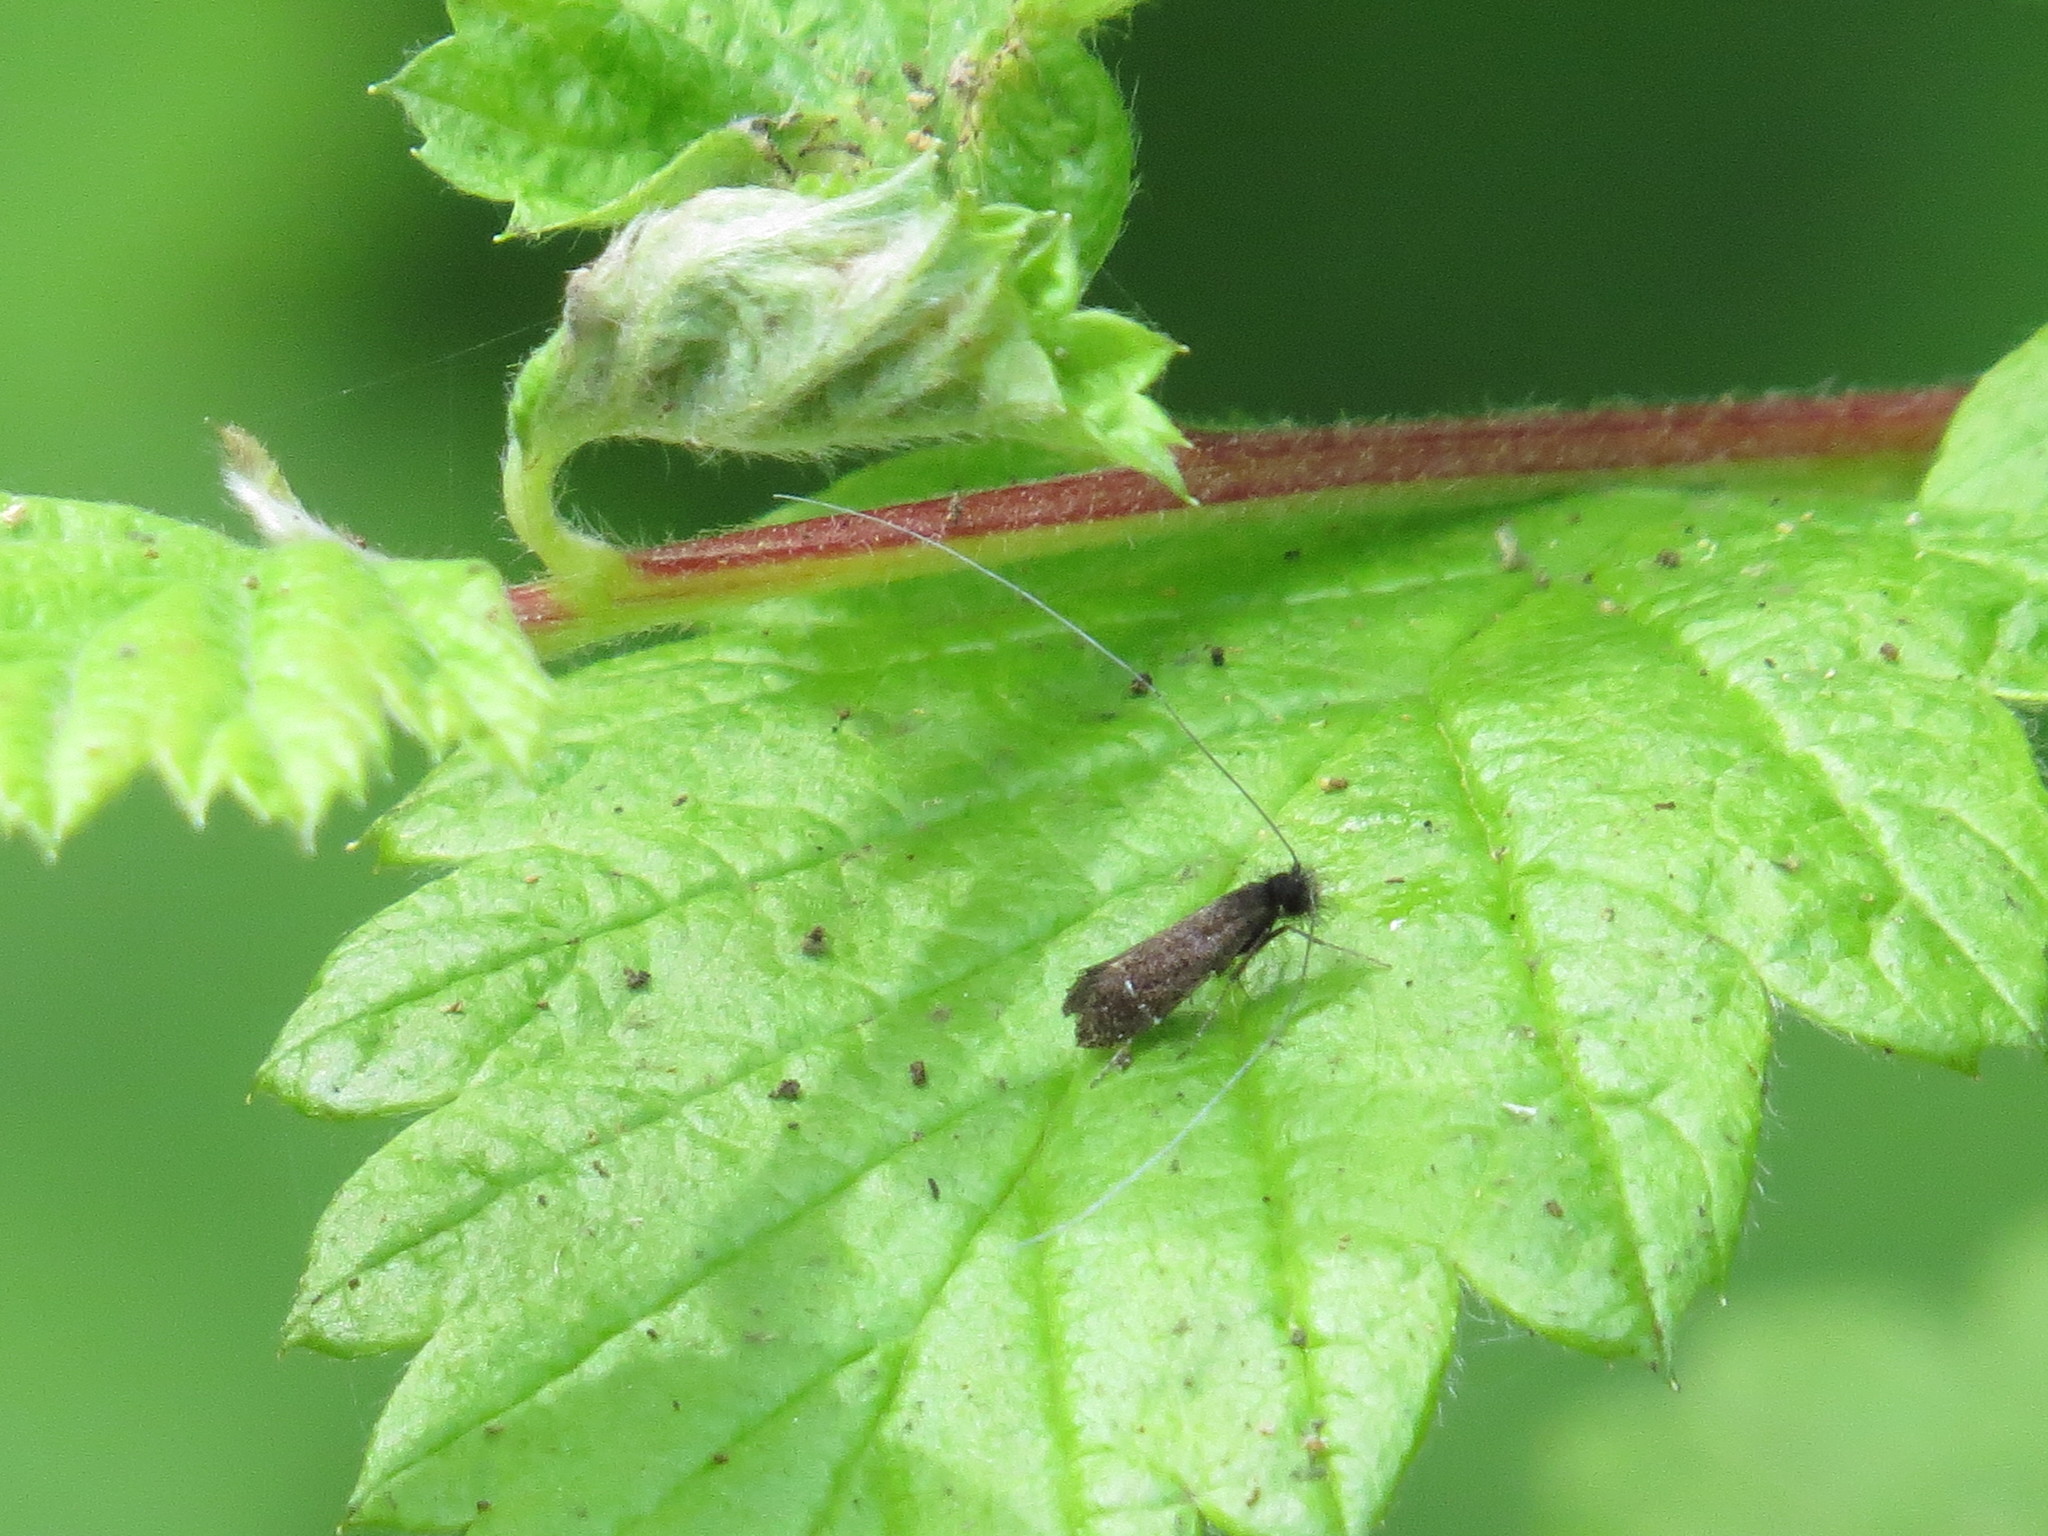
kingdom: Animalia
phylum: Arthropoda
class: Insecta
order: Lepidoptera
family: Adelidae
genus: Adela
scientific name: Adela septentrionella
